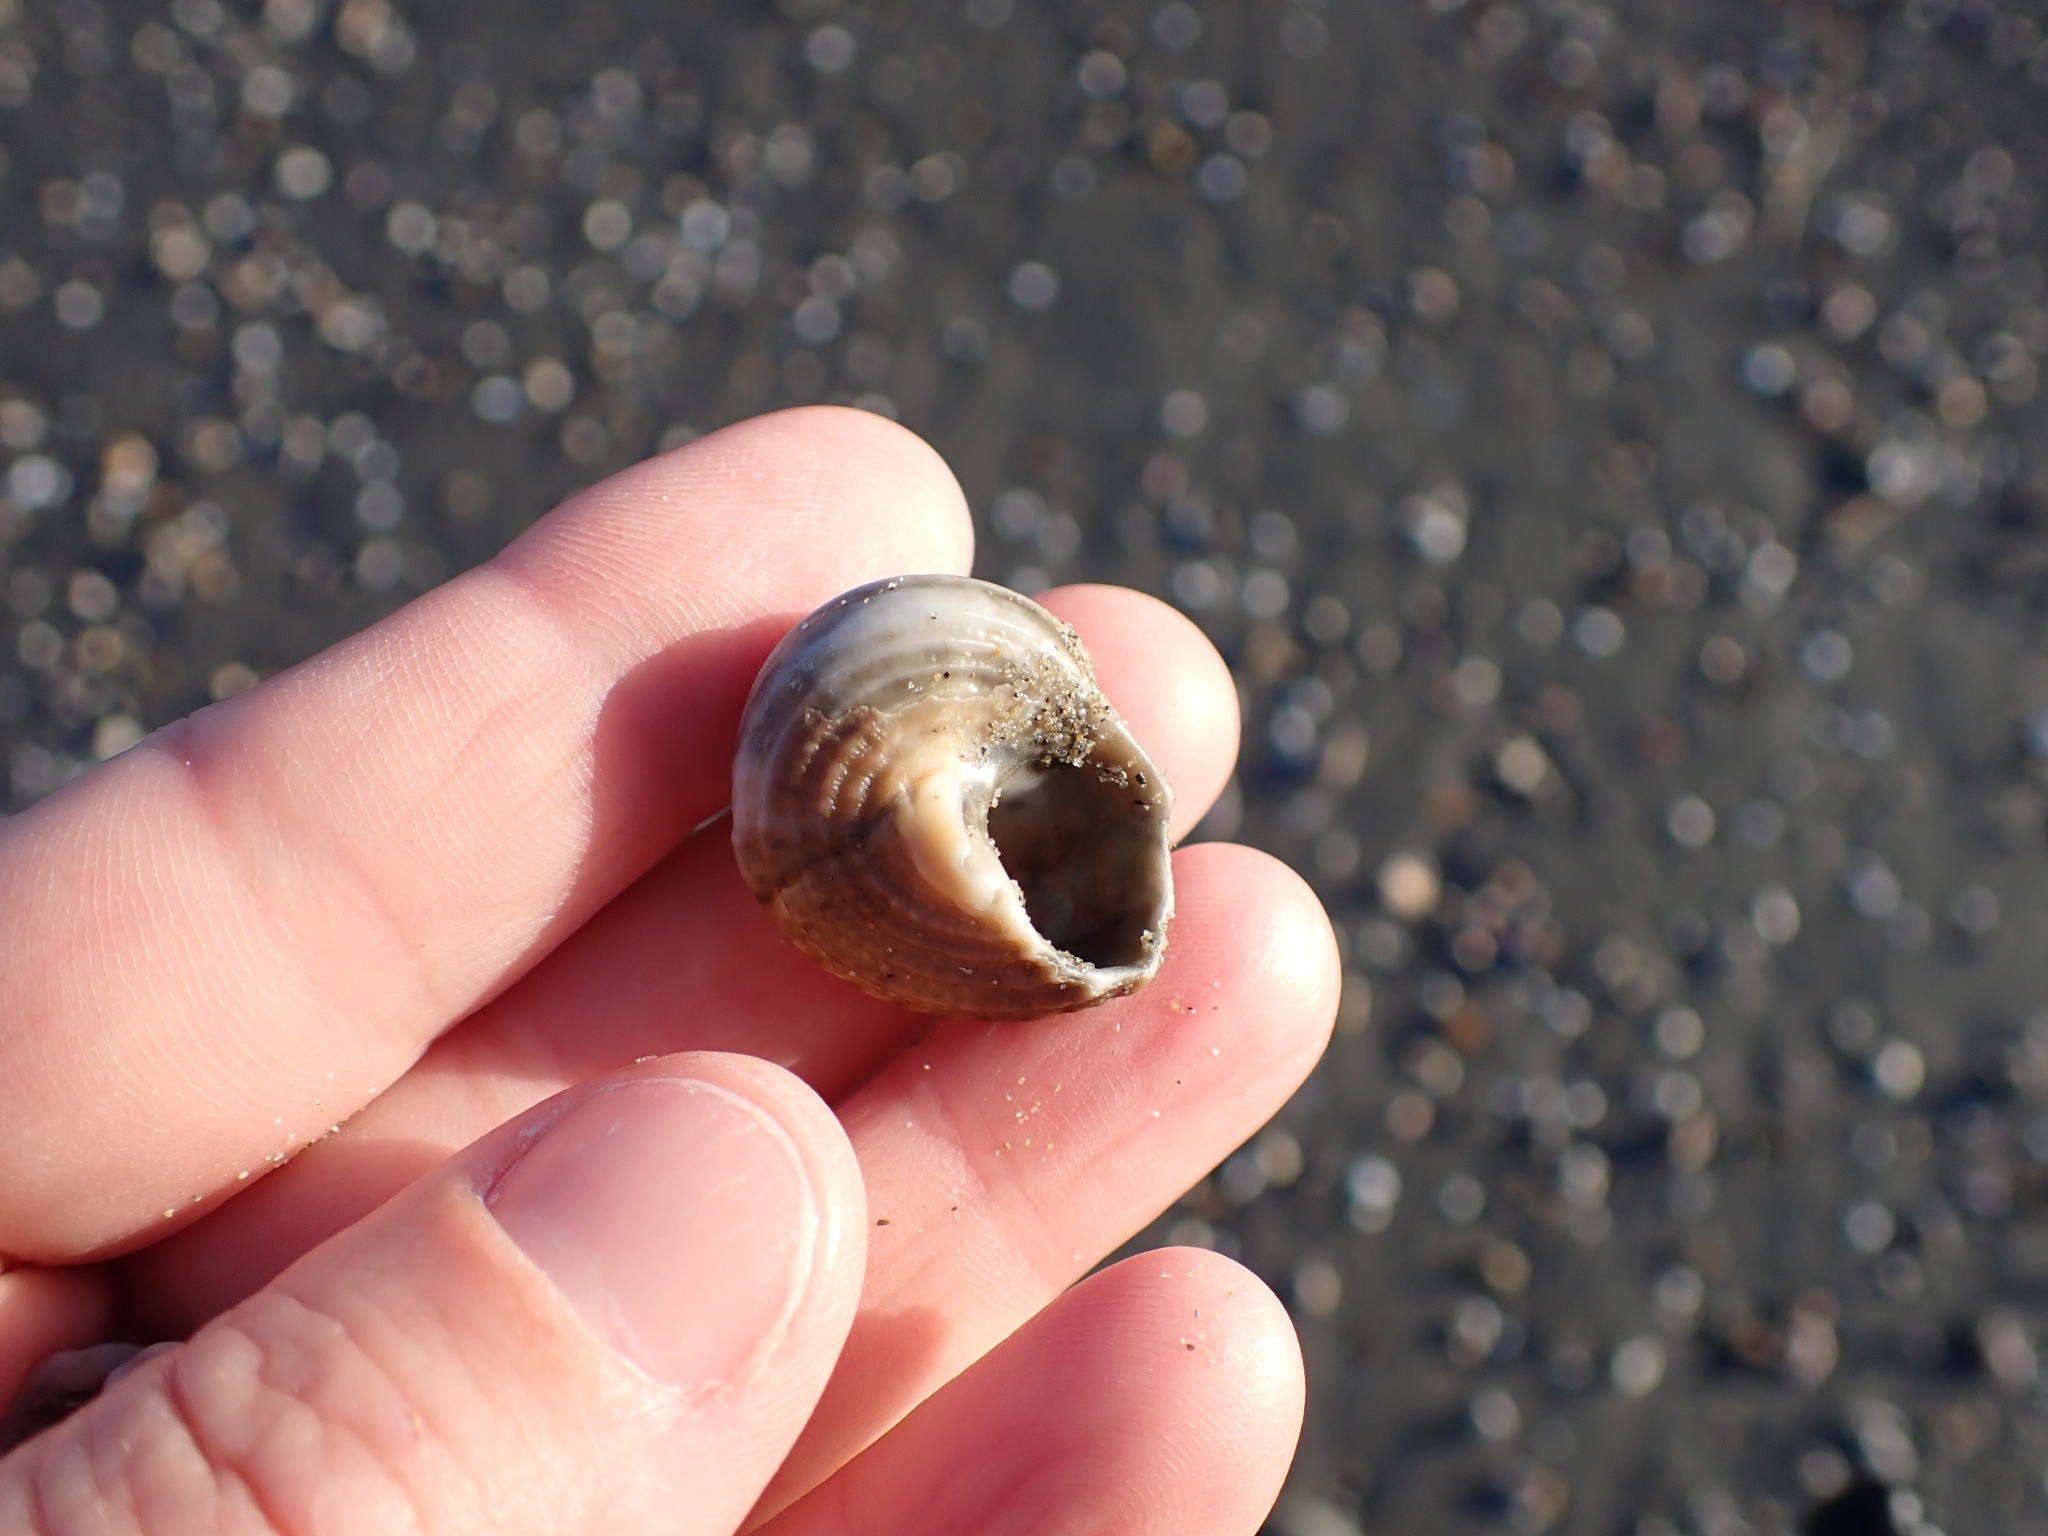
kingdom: Animalia
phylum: Mollusca
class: Gastropoda
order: Trochida
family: Turbinidae
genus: Bolma
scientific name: Bolma rugosa
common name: Rough star shell
